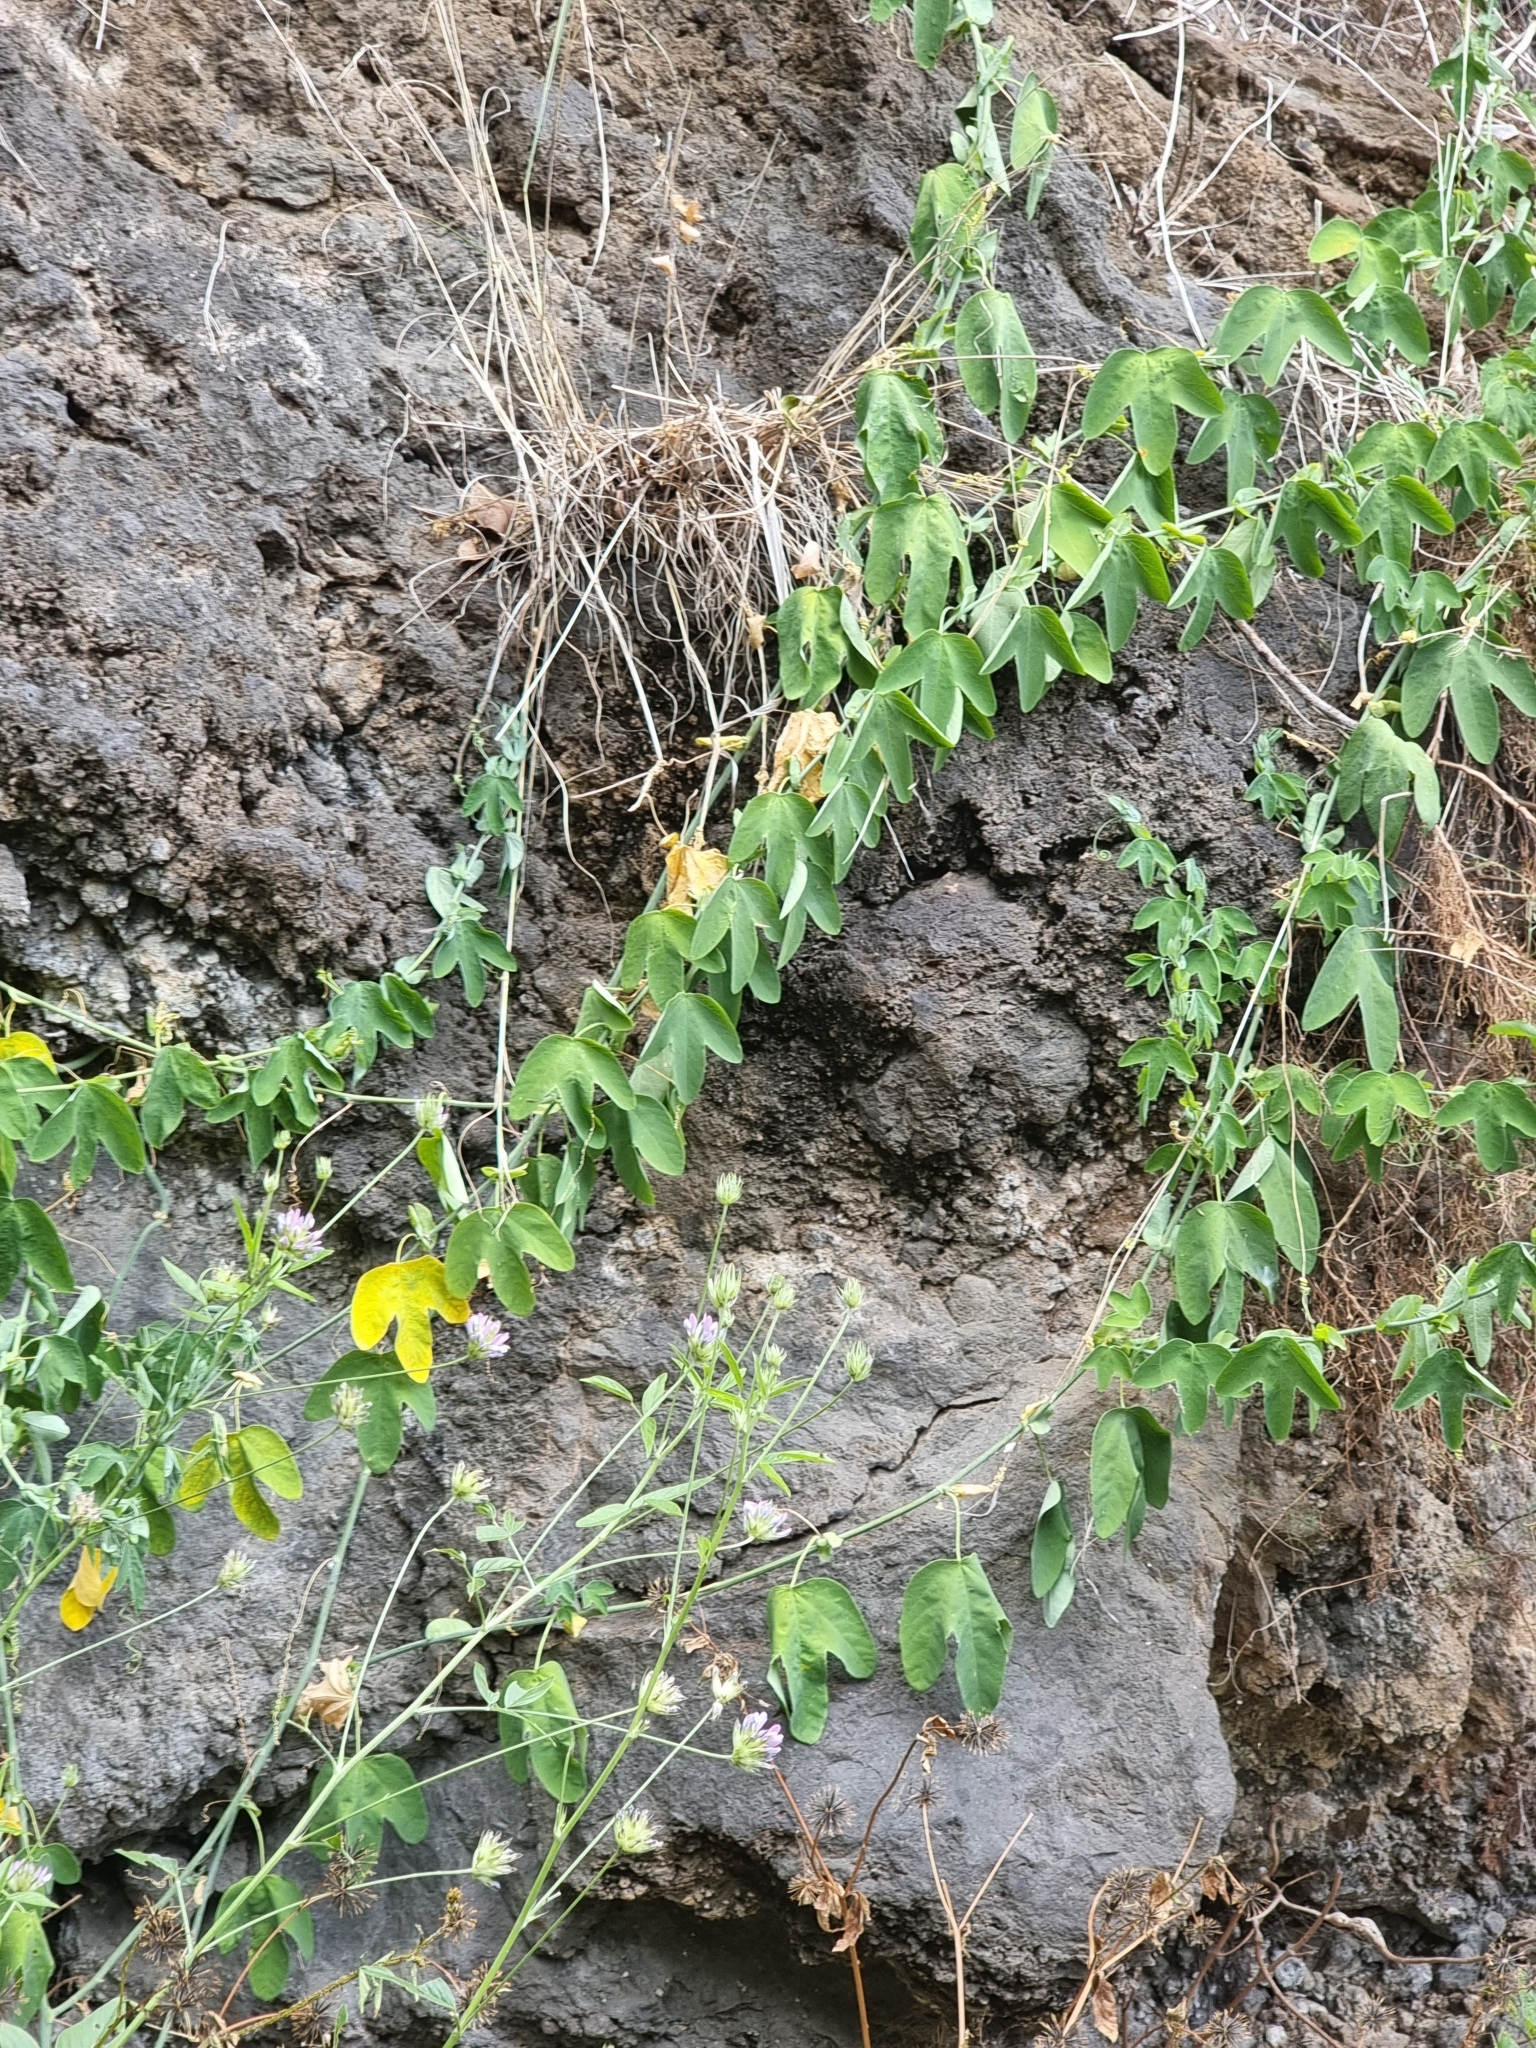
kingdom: Plantae
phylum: Tracheophyta
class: Magnoliopsida
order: Malpighiales
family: Passifloraceae
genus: Passiflora
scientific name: Passiflora subpeltata
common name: White passionflower
